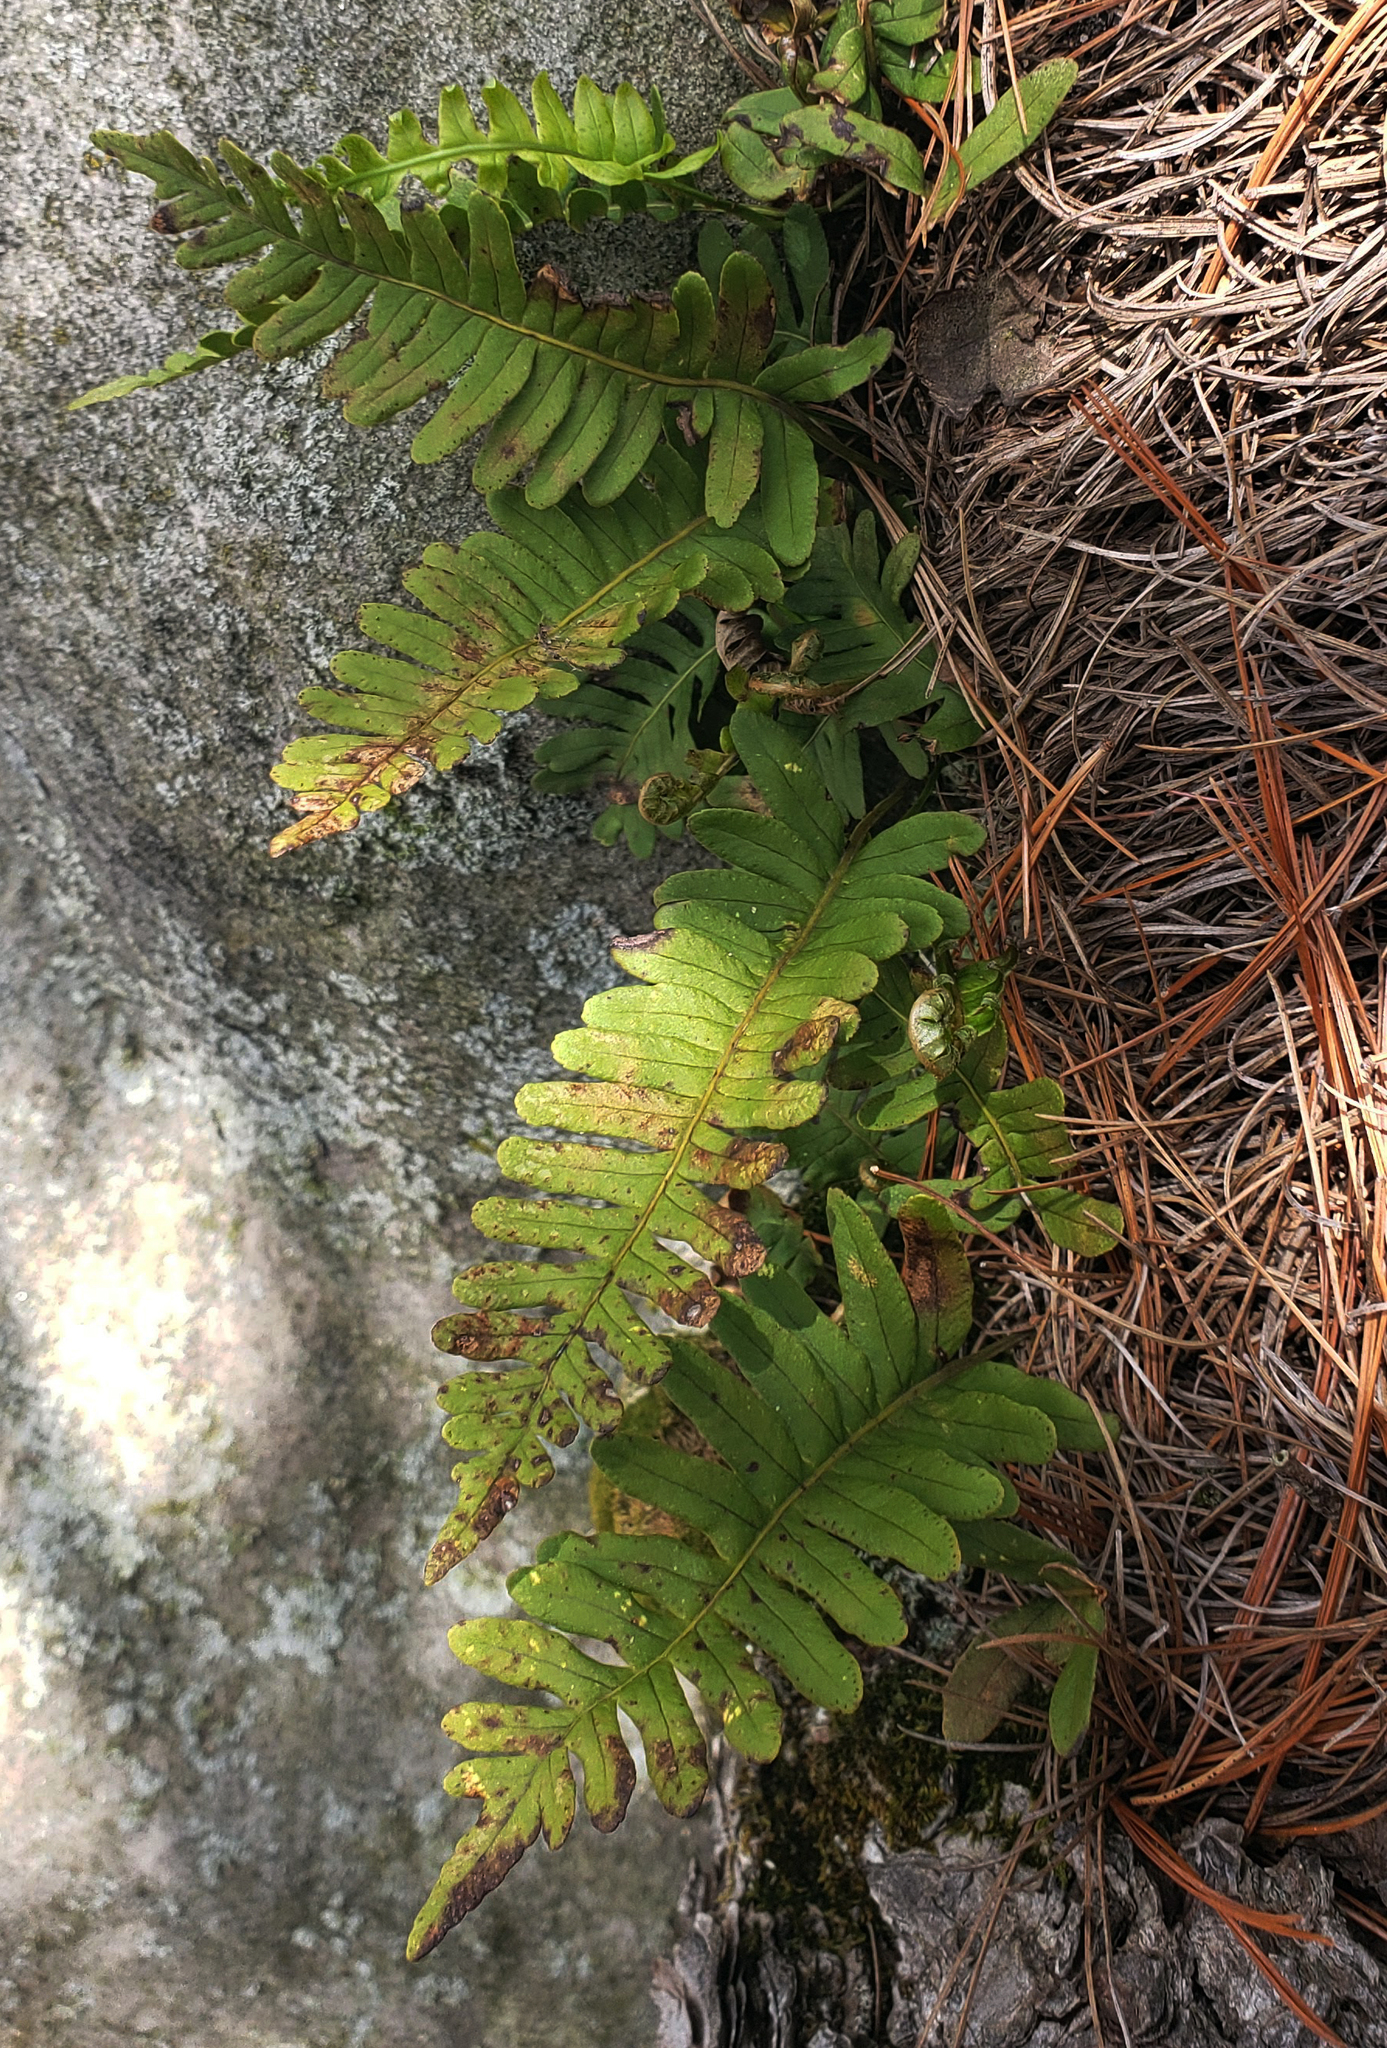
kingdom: Plantae
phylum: Tracheophyta
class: Polypodiopsida
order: Polypodiales
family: Polypodiaceae
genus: Polypodium
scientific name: Polypodium virginianum
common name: American wall fern
